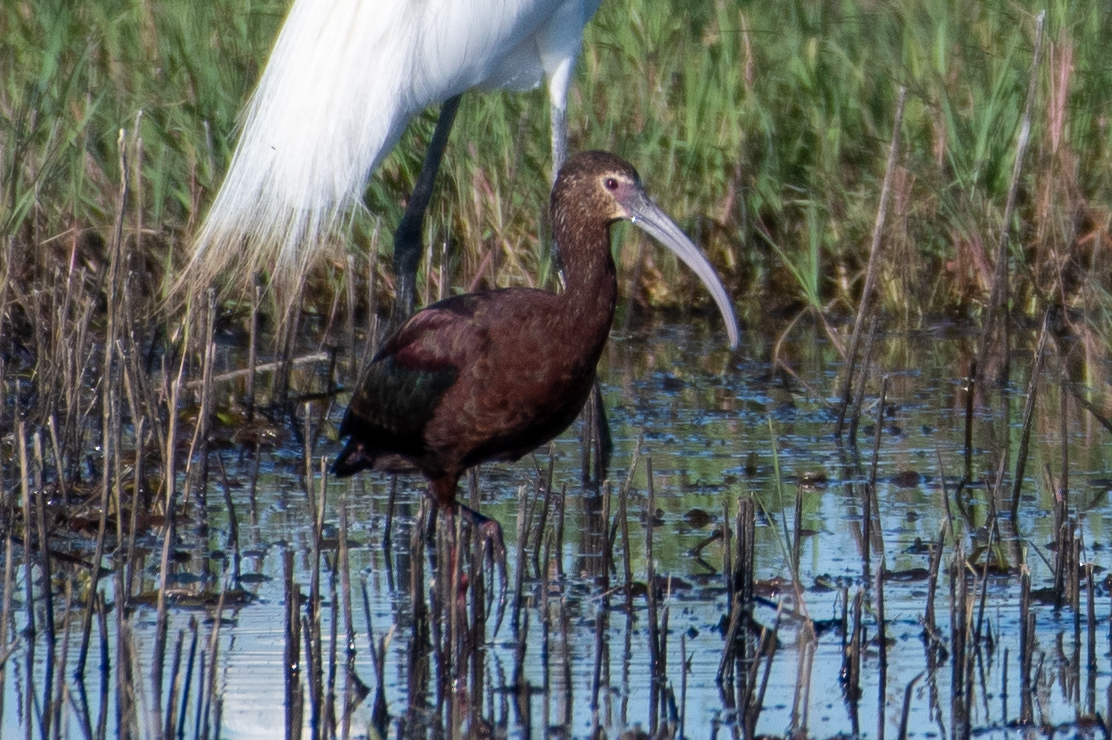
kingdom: Animalia
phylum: Chordata
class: Aves
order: Pelecaniformes
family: Threskiornithidae
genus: Plegadis
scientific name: Plegadis chihi
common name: White-faced ibis
